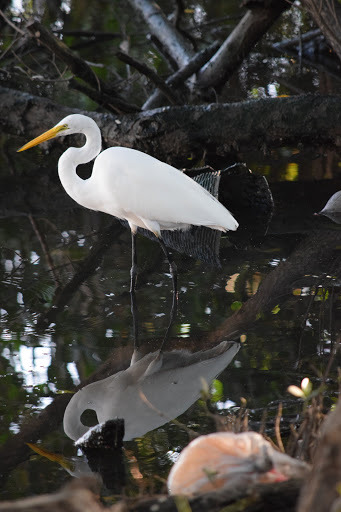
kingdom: Animalia
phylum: Chordata
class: Aves
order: Pelecaniformes
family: Ardeidae
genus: Ardea
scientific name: Ardea alba
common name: Great egret
